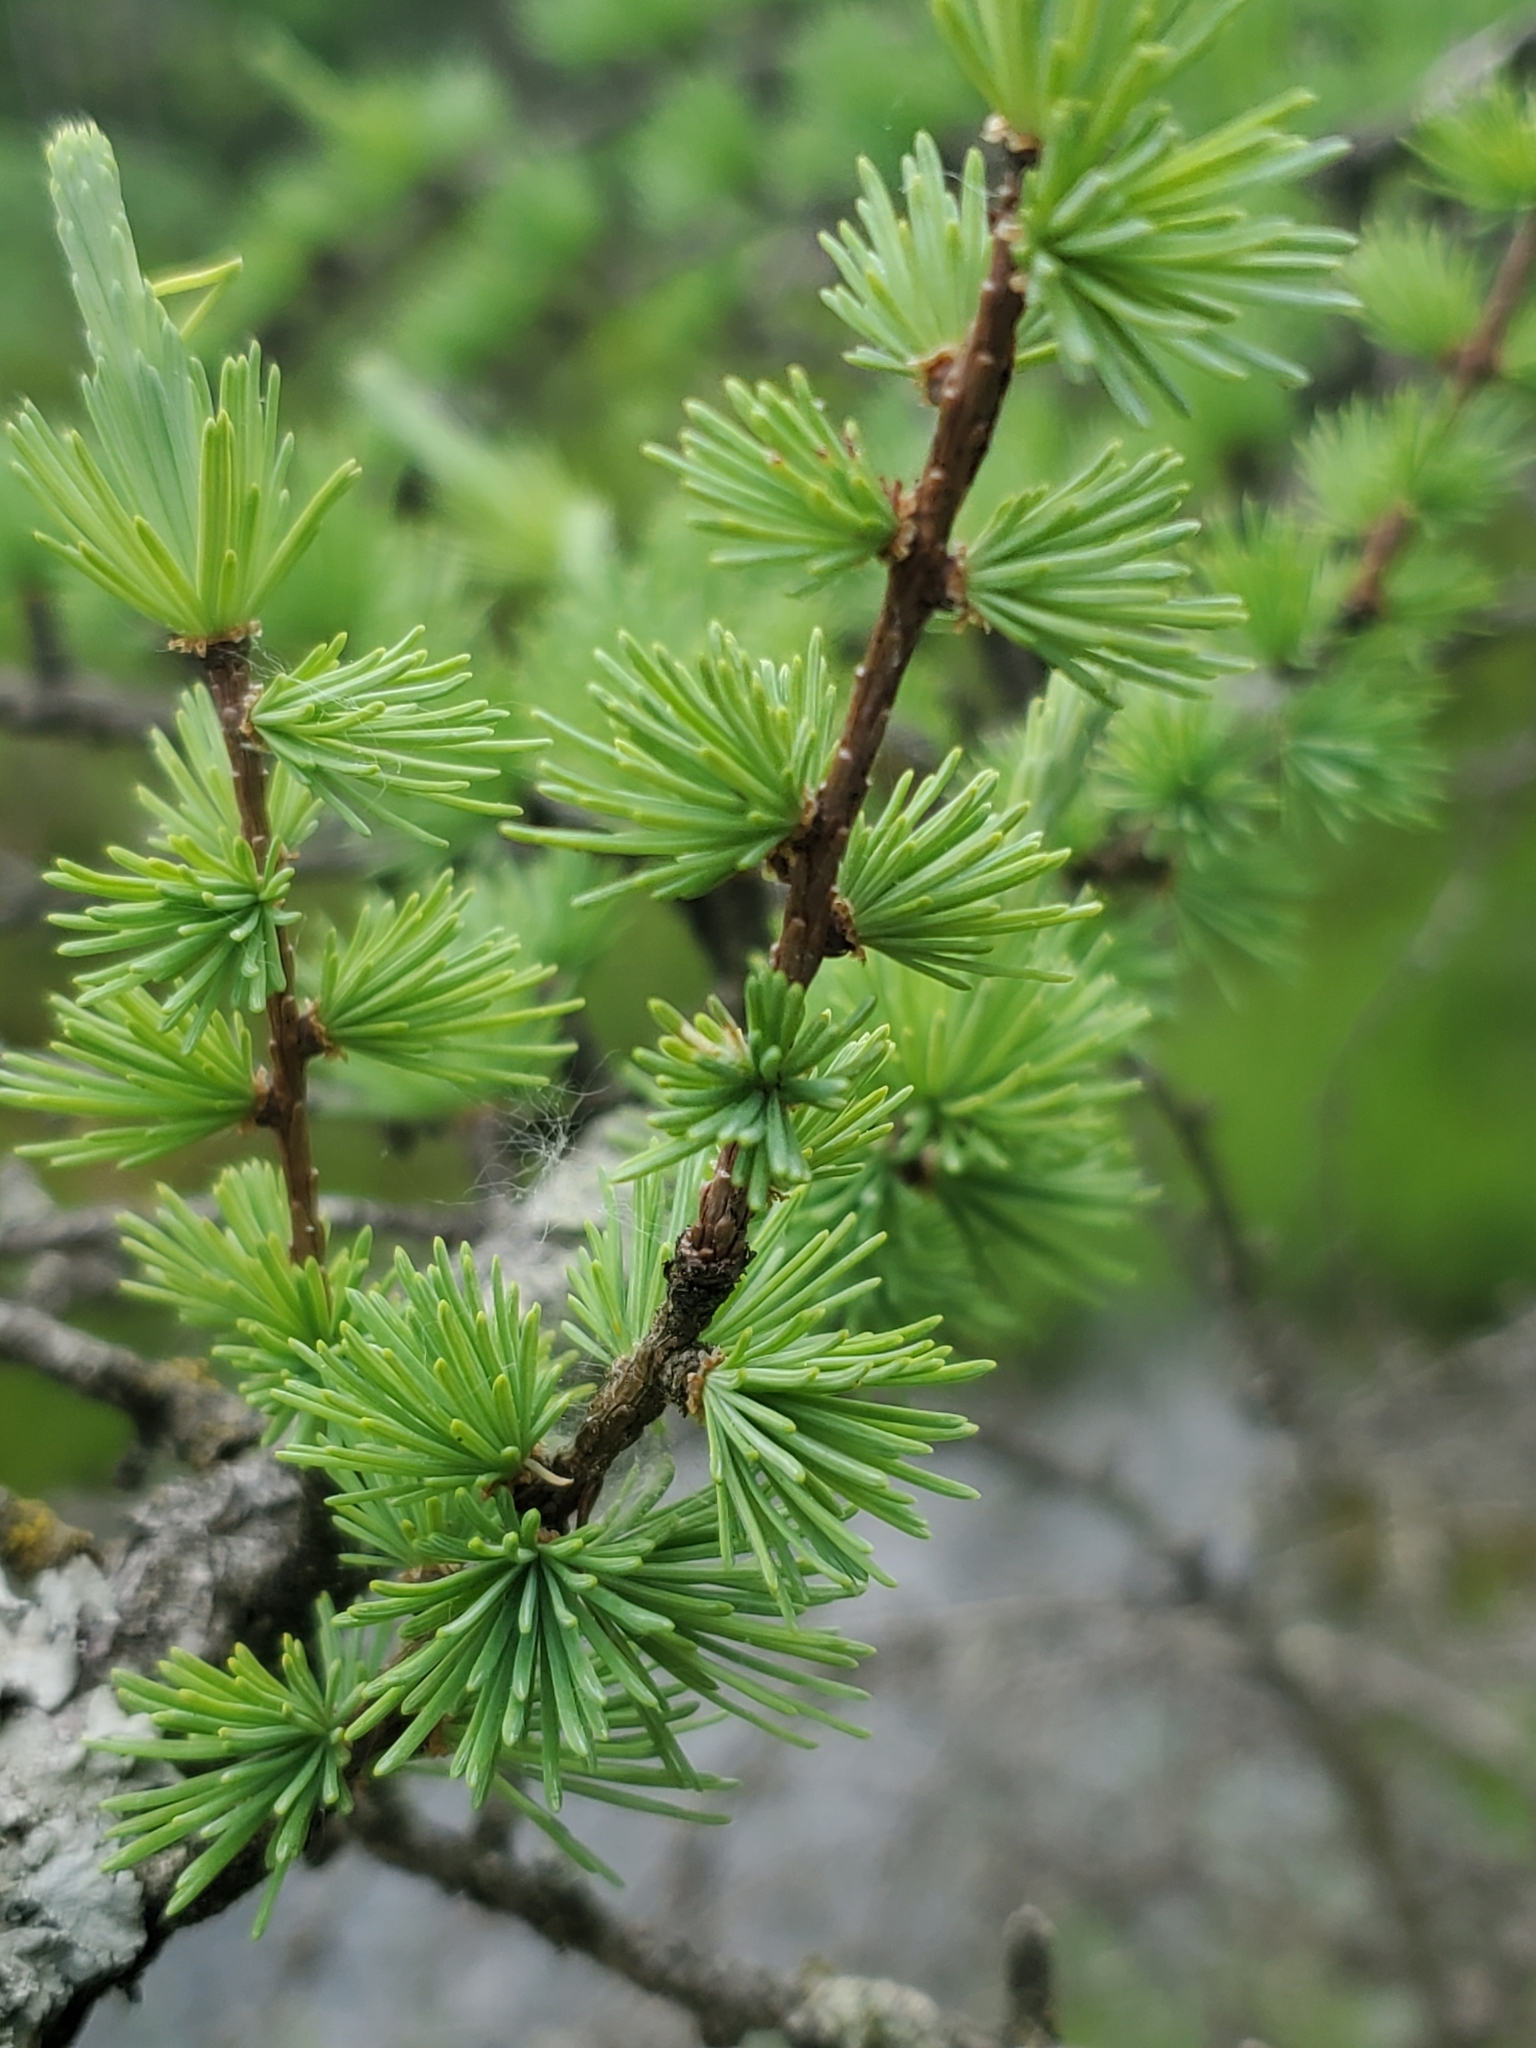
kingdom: Plantae
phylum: Tracheophyta
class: Pinopsida
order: Pinales
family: Pinaceae
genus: Larix
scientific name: Larix laricina
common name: American larch
